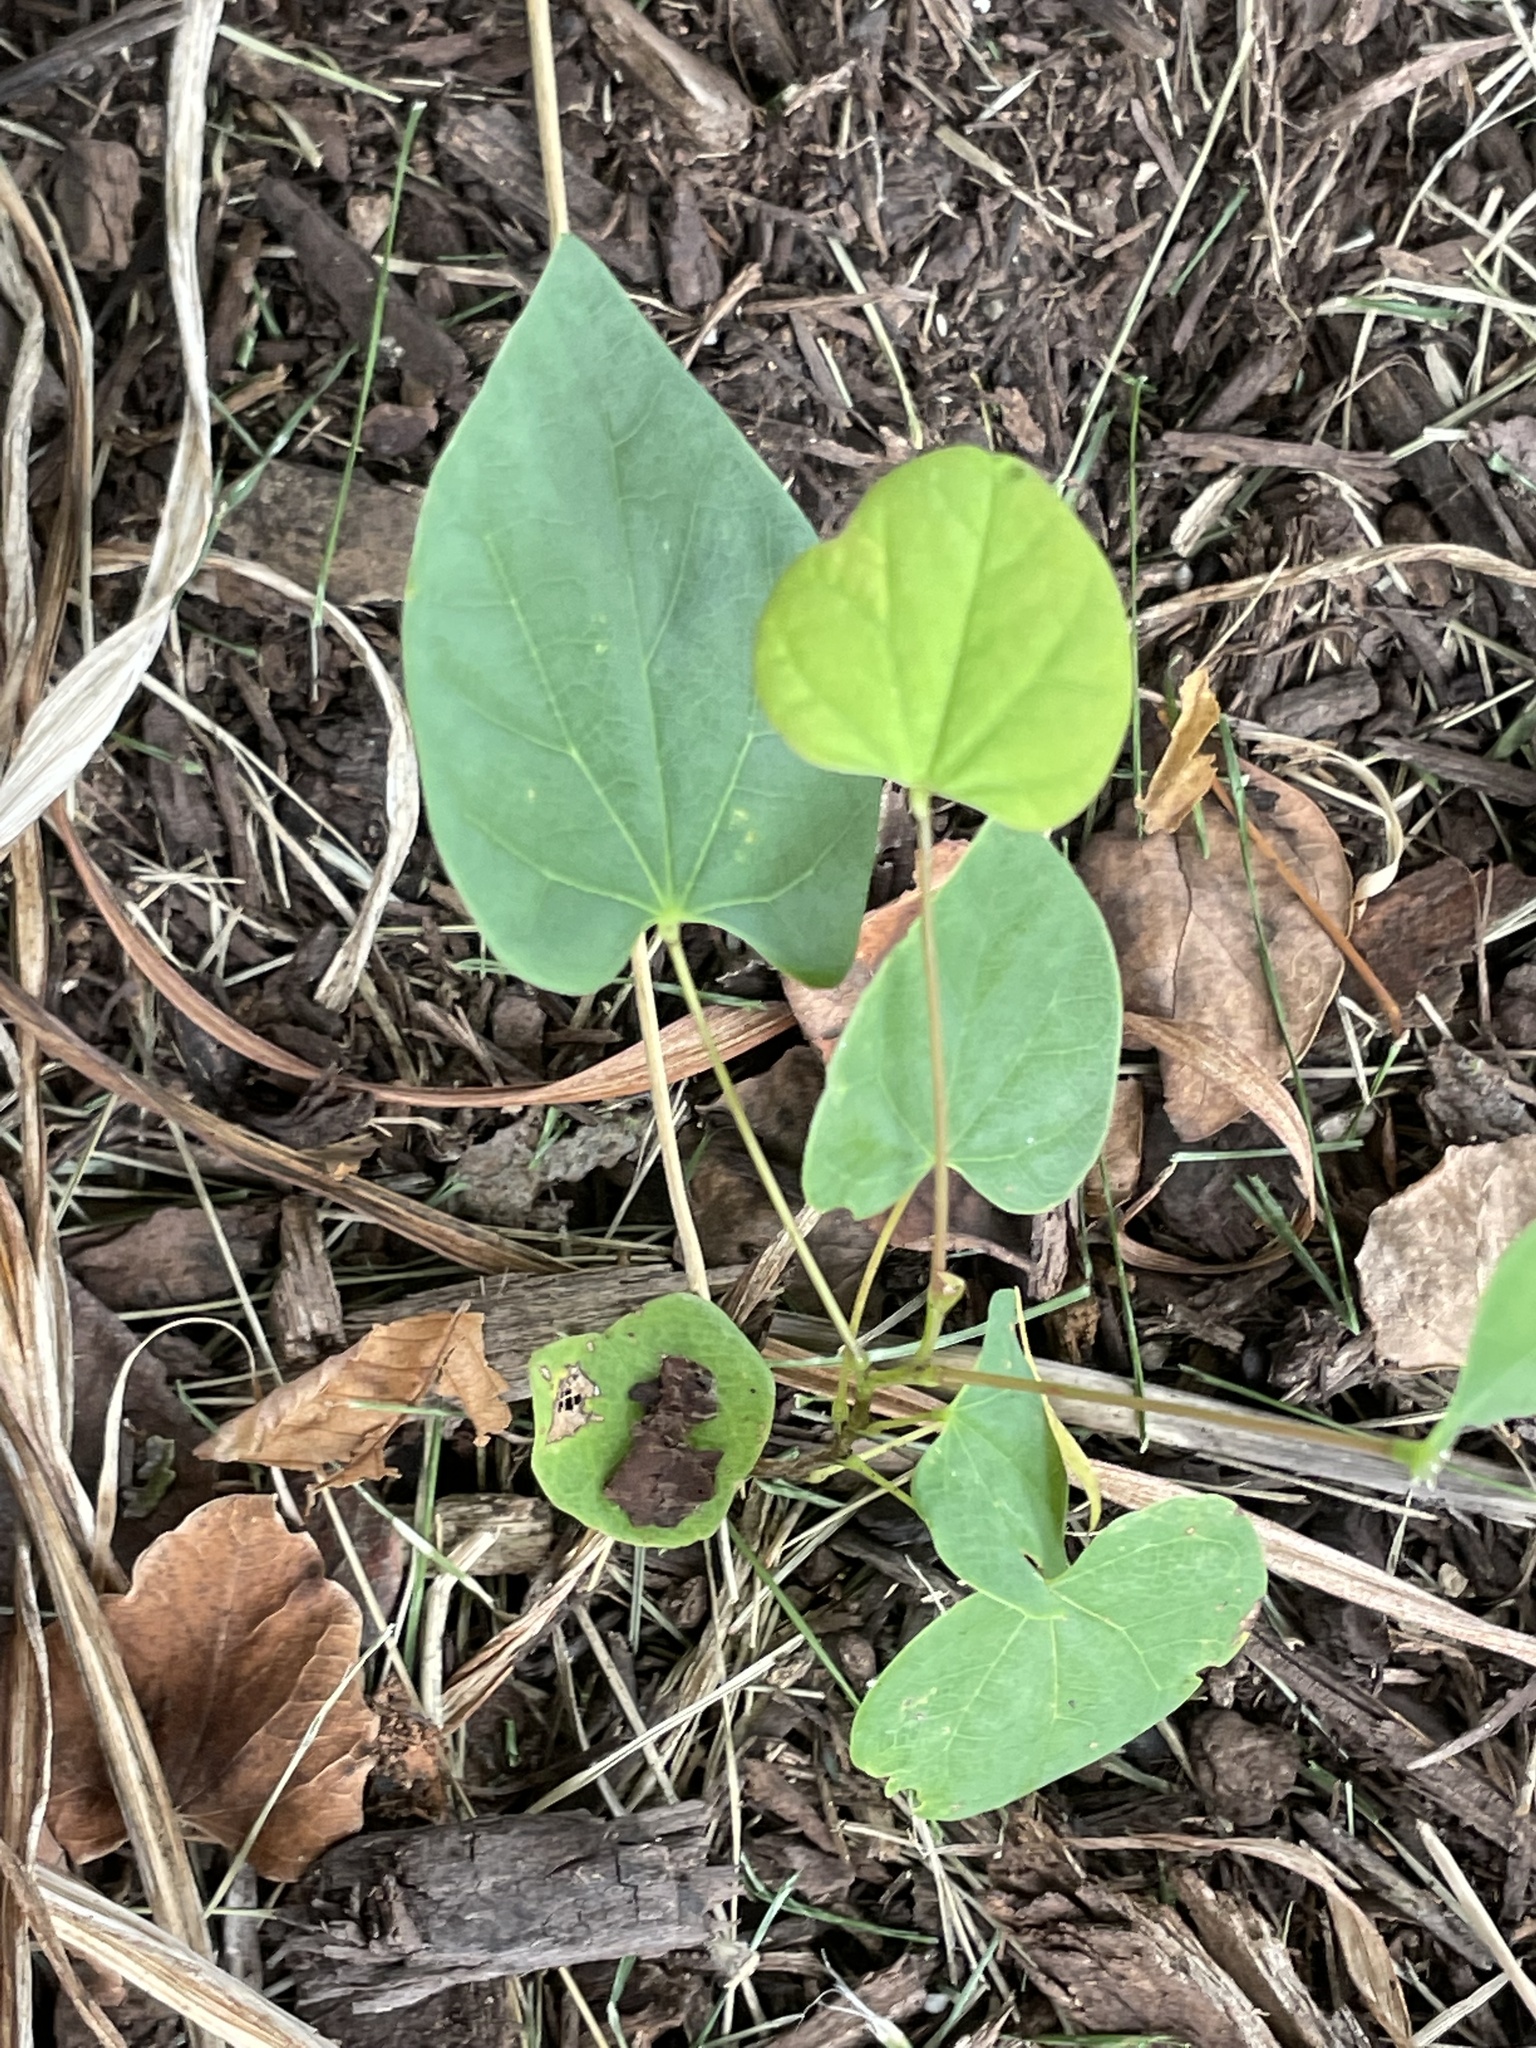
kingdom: Plantae
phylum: Tracheophyta
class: Magnoliopsida
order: Fabales
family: Fabaceae
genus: Cercis
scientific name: Cercis canadensis
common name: Eastern redbud
